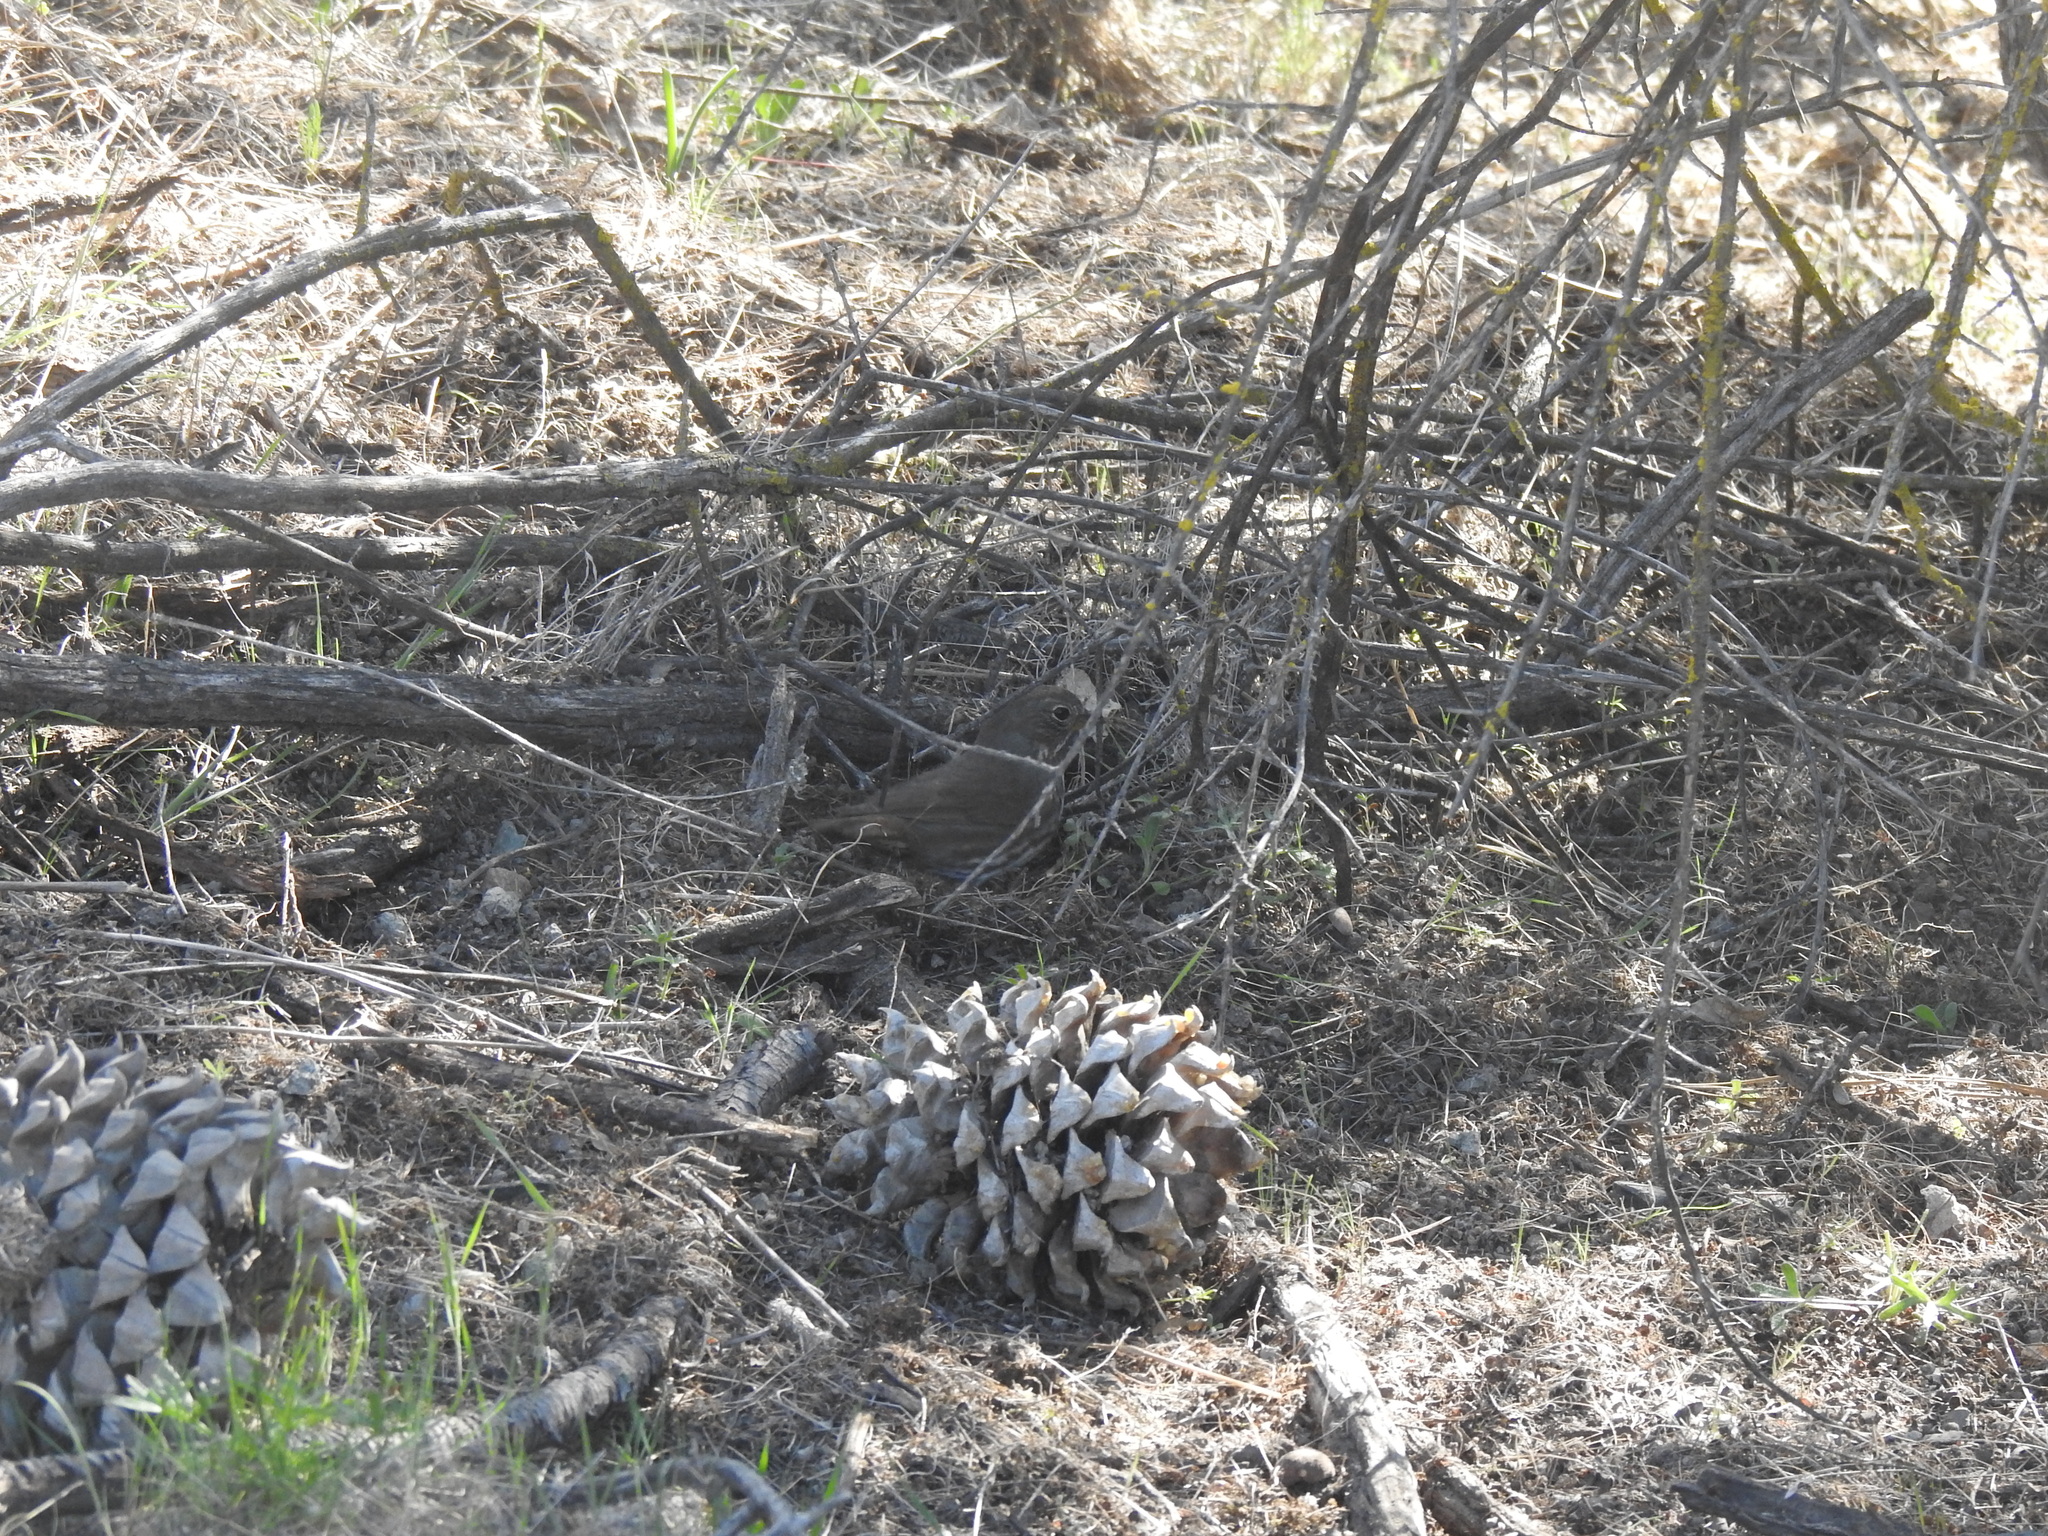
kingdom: Animalia
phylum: Chordata
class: Aves
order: Passeriformes
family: Passerellidae
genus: Passerella
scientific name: Passerella iliaca
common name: Fox sparrow
